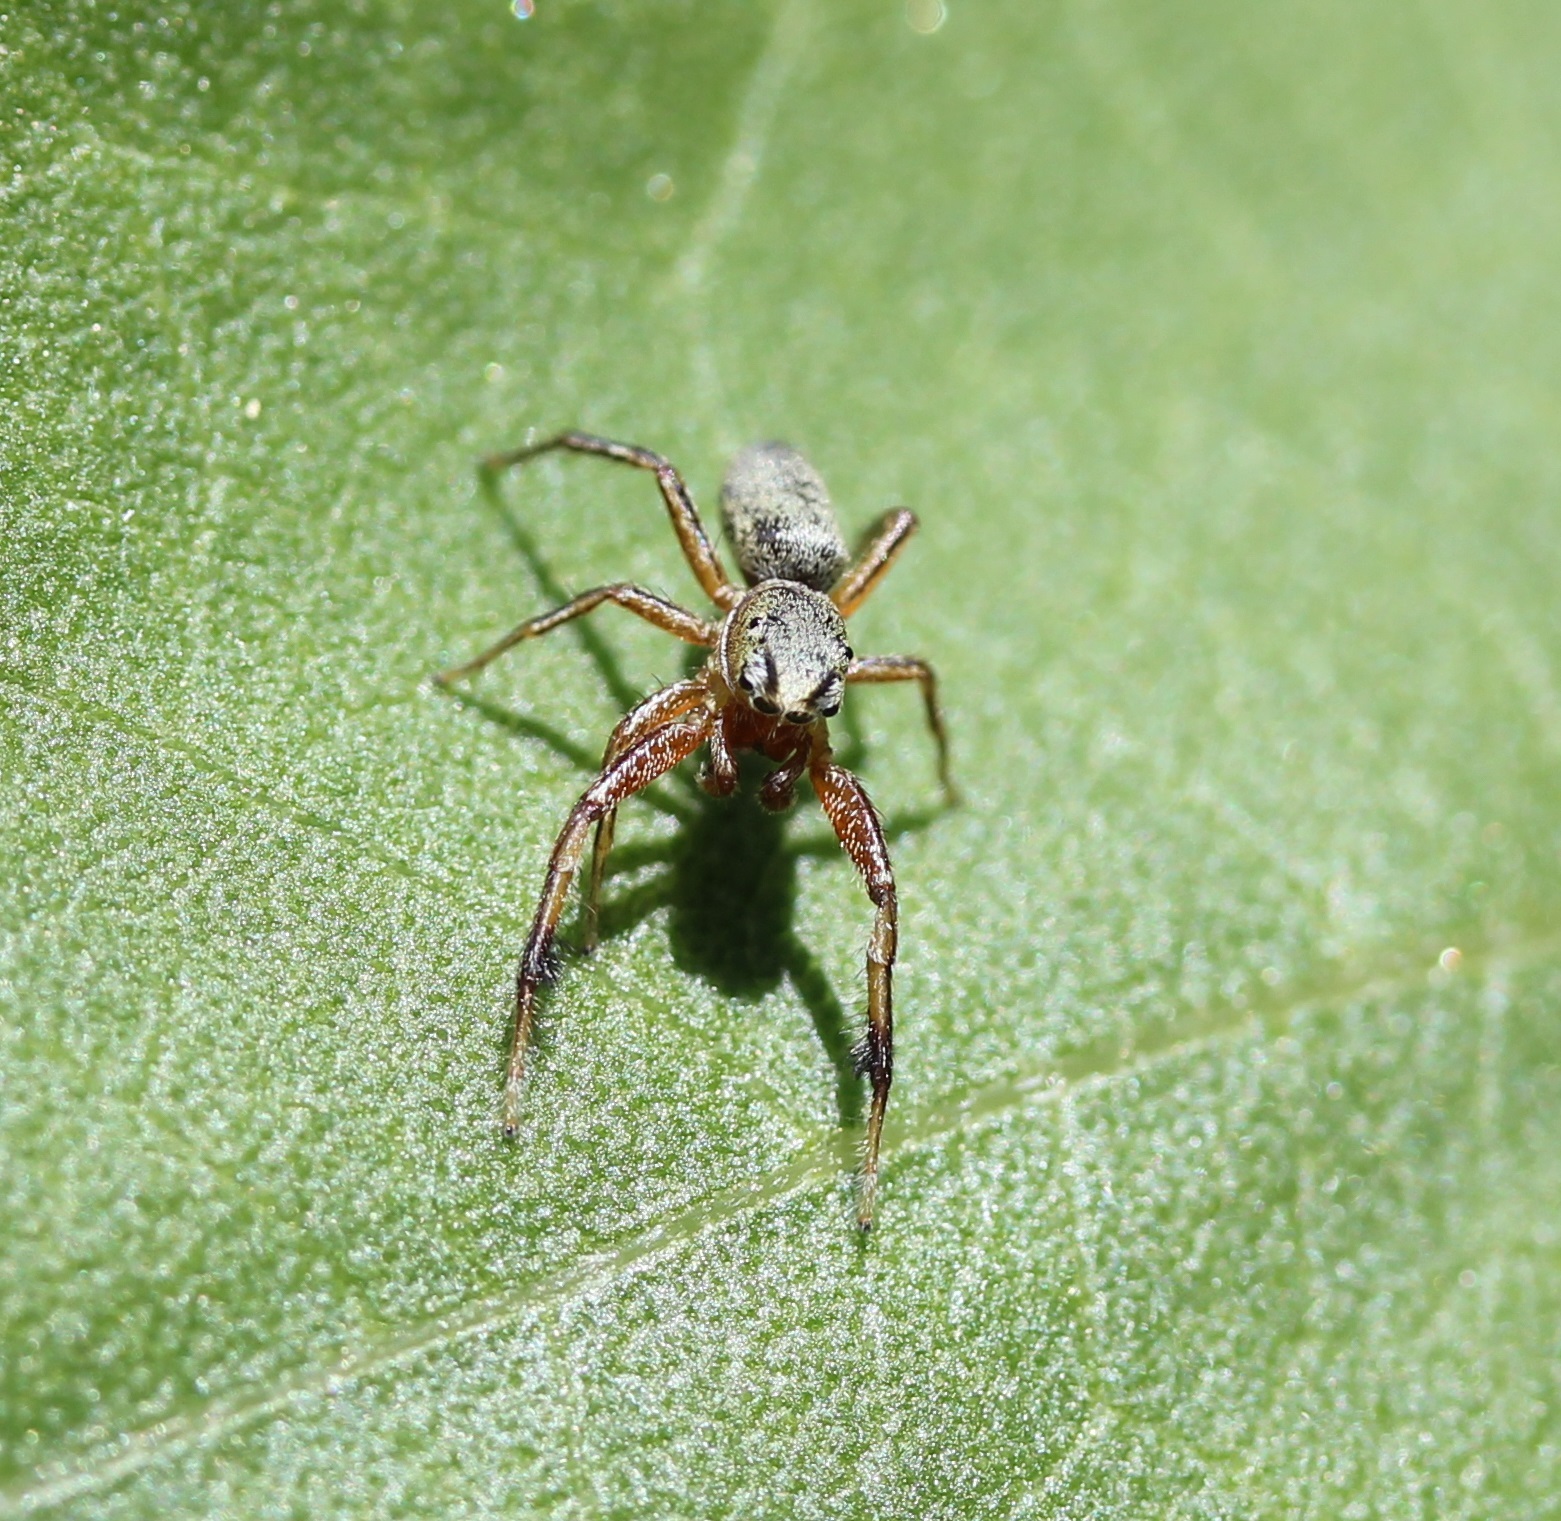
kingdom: Animalia
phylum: Arthropoda
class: Arachnida
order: Araneae
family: Salticidae
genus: Tutelina
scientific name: Tutelina elegans
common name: Thin-spined jumping spider
